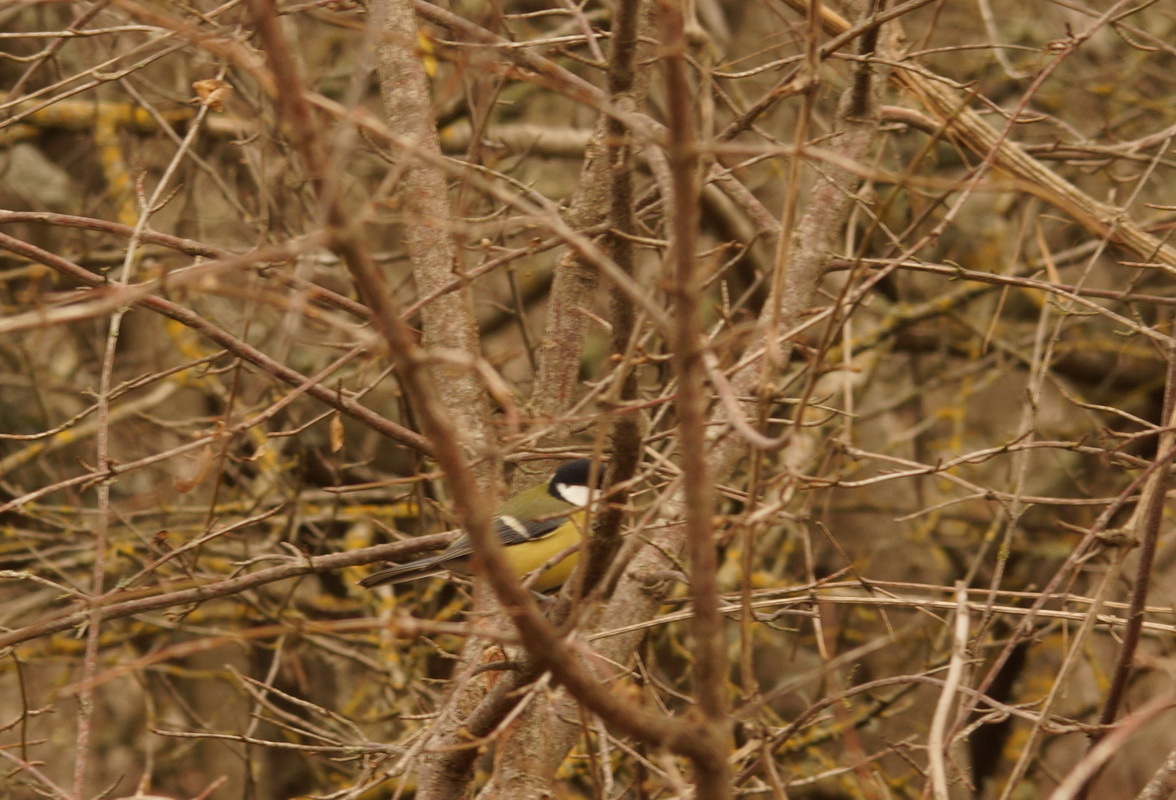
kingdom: Animalia
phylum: Chordata
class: Aves
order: Passeriformes
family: Paridae
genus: Parus
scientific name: Parus major
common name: Great tit
